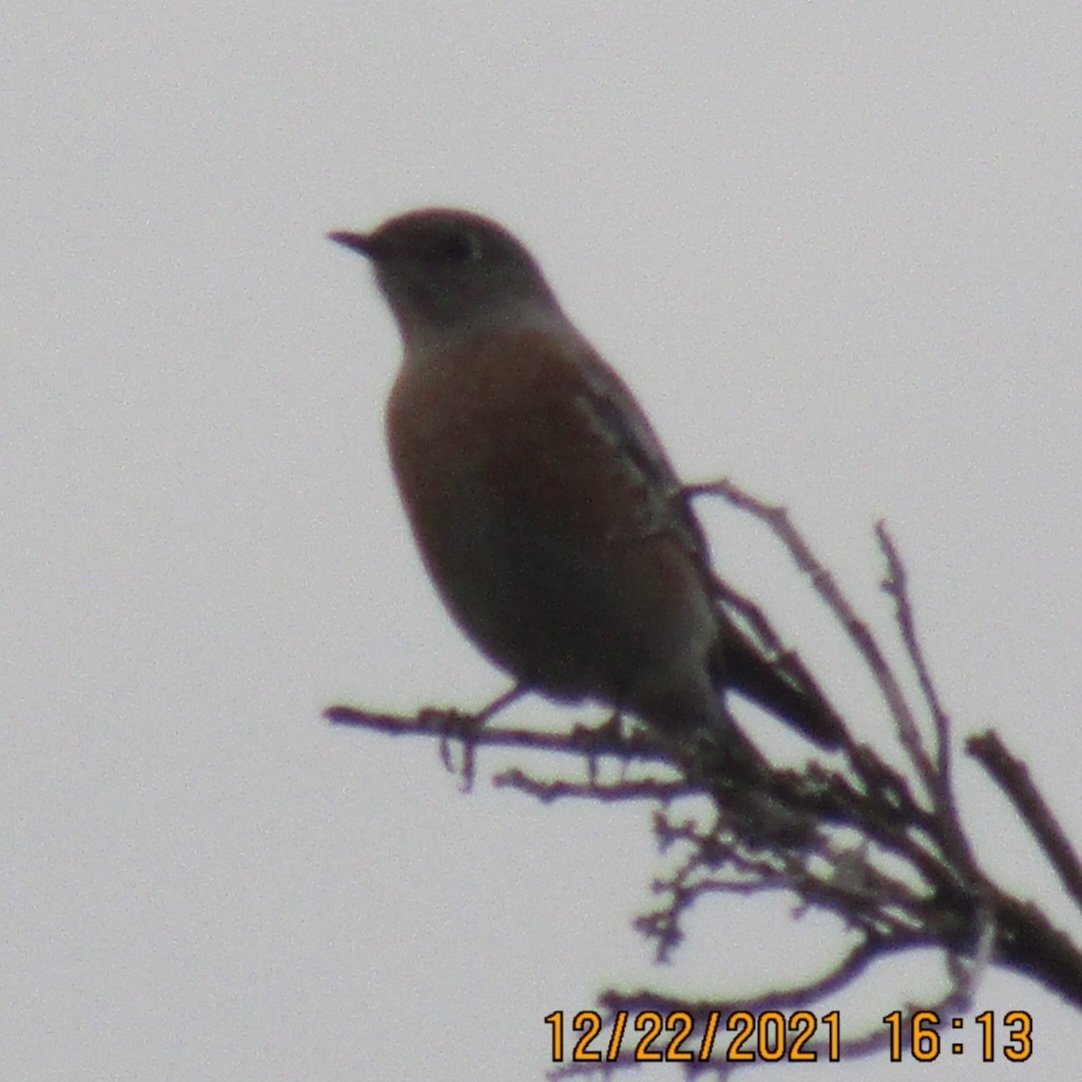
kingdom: Animalia
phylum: Chordata
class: Aves
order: Passeriformes
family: Turdidae
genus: Sialia
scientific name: Sialia mexicana
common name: Western bluebird
